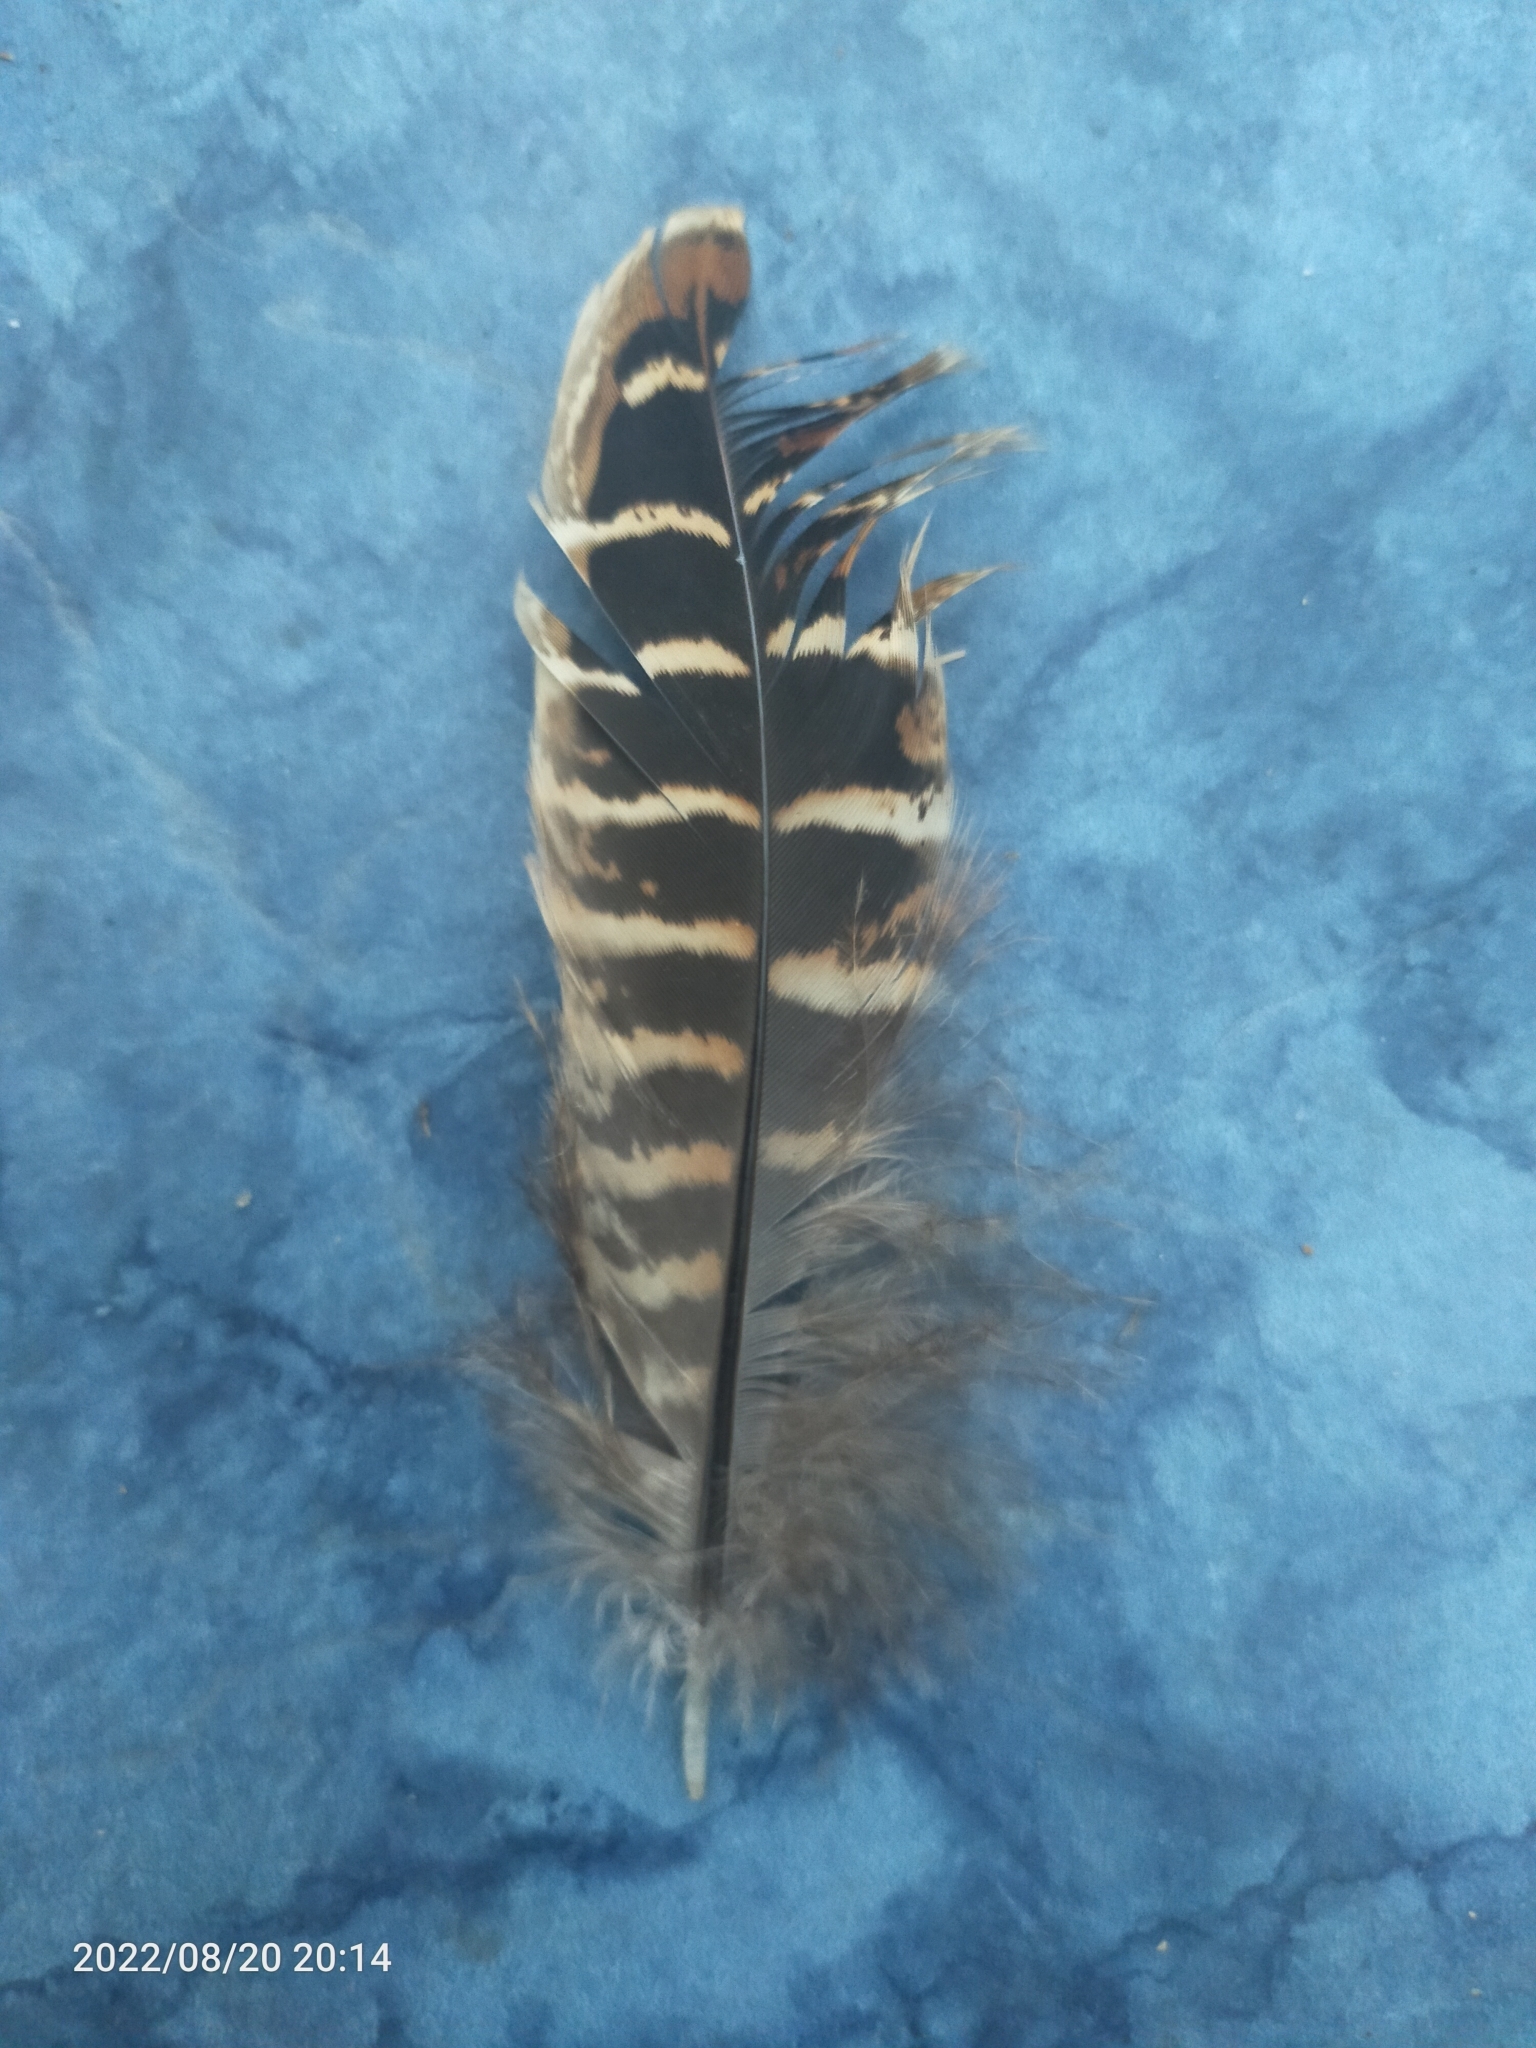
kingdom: Animalia
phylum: Chordata
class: Aves
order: Galliformes
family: Phasianidae
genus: Phasianus
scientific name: Phasianus colchicus
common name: Common pheasant
